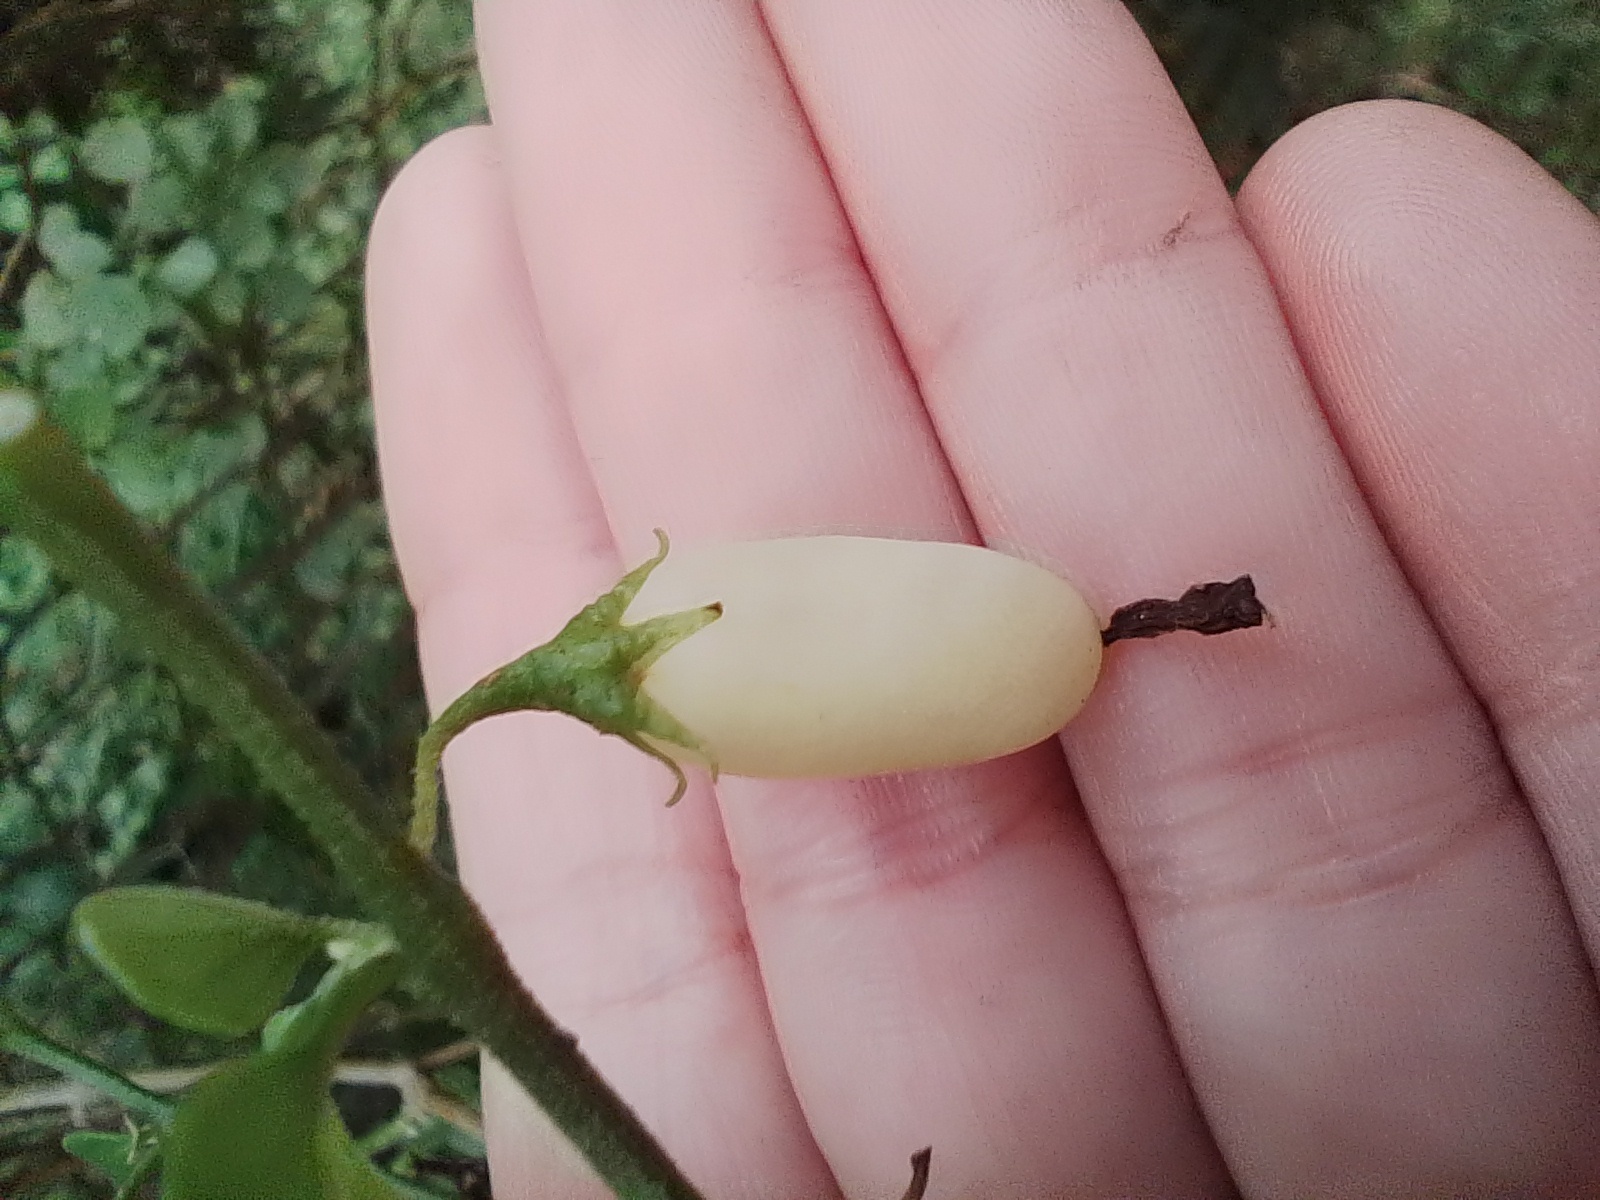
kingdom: Plantae
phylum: Tracheophyta
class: Magnoliopsida
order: Solanales
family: Solanaceae
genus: Salpichroa
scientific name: Salpichroa origanifolia
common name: Lily-of-the-valley-vine
